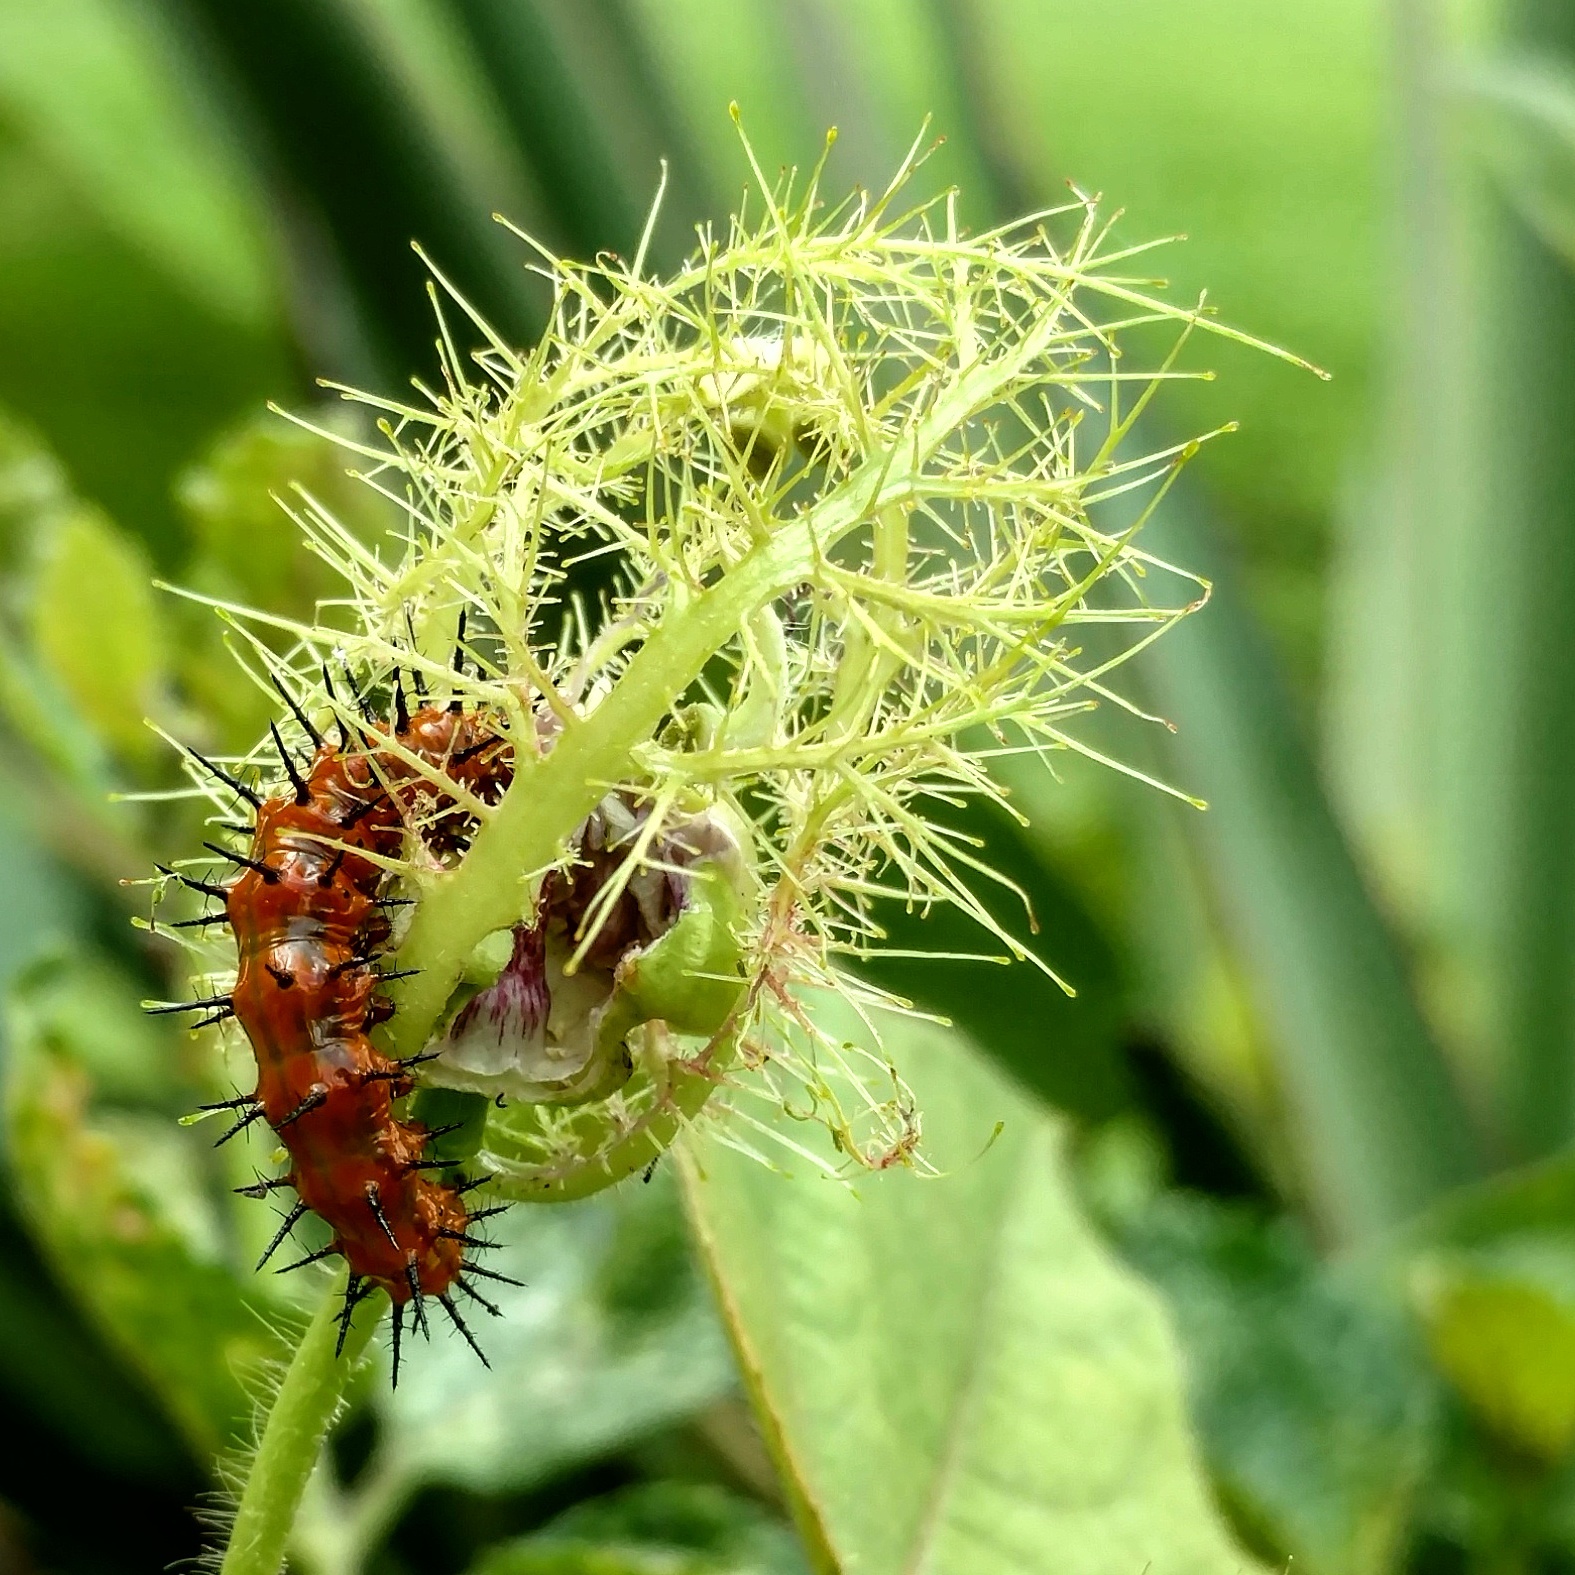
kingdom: Animalia
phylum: Arthropoda
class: Insecta
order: Lepidoptera
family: Nymphalidae
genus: Dione
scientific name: Dione vanillae
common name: Gulf fritillary
